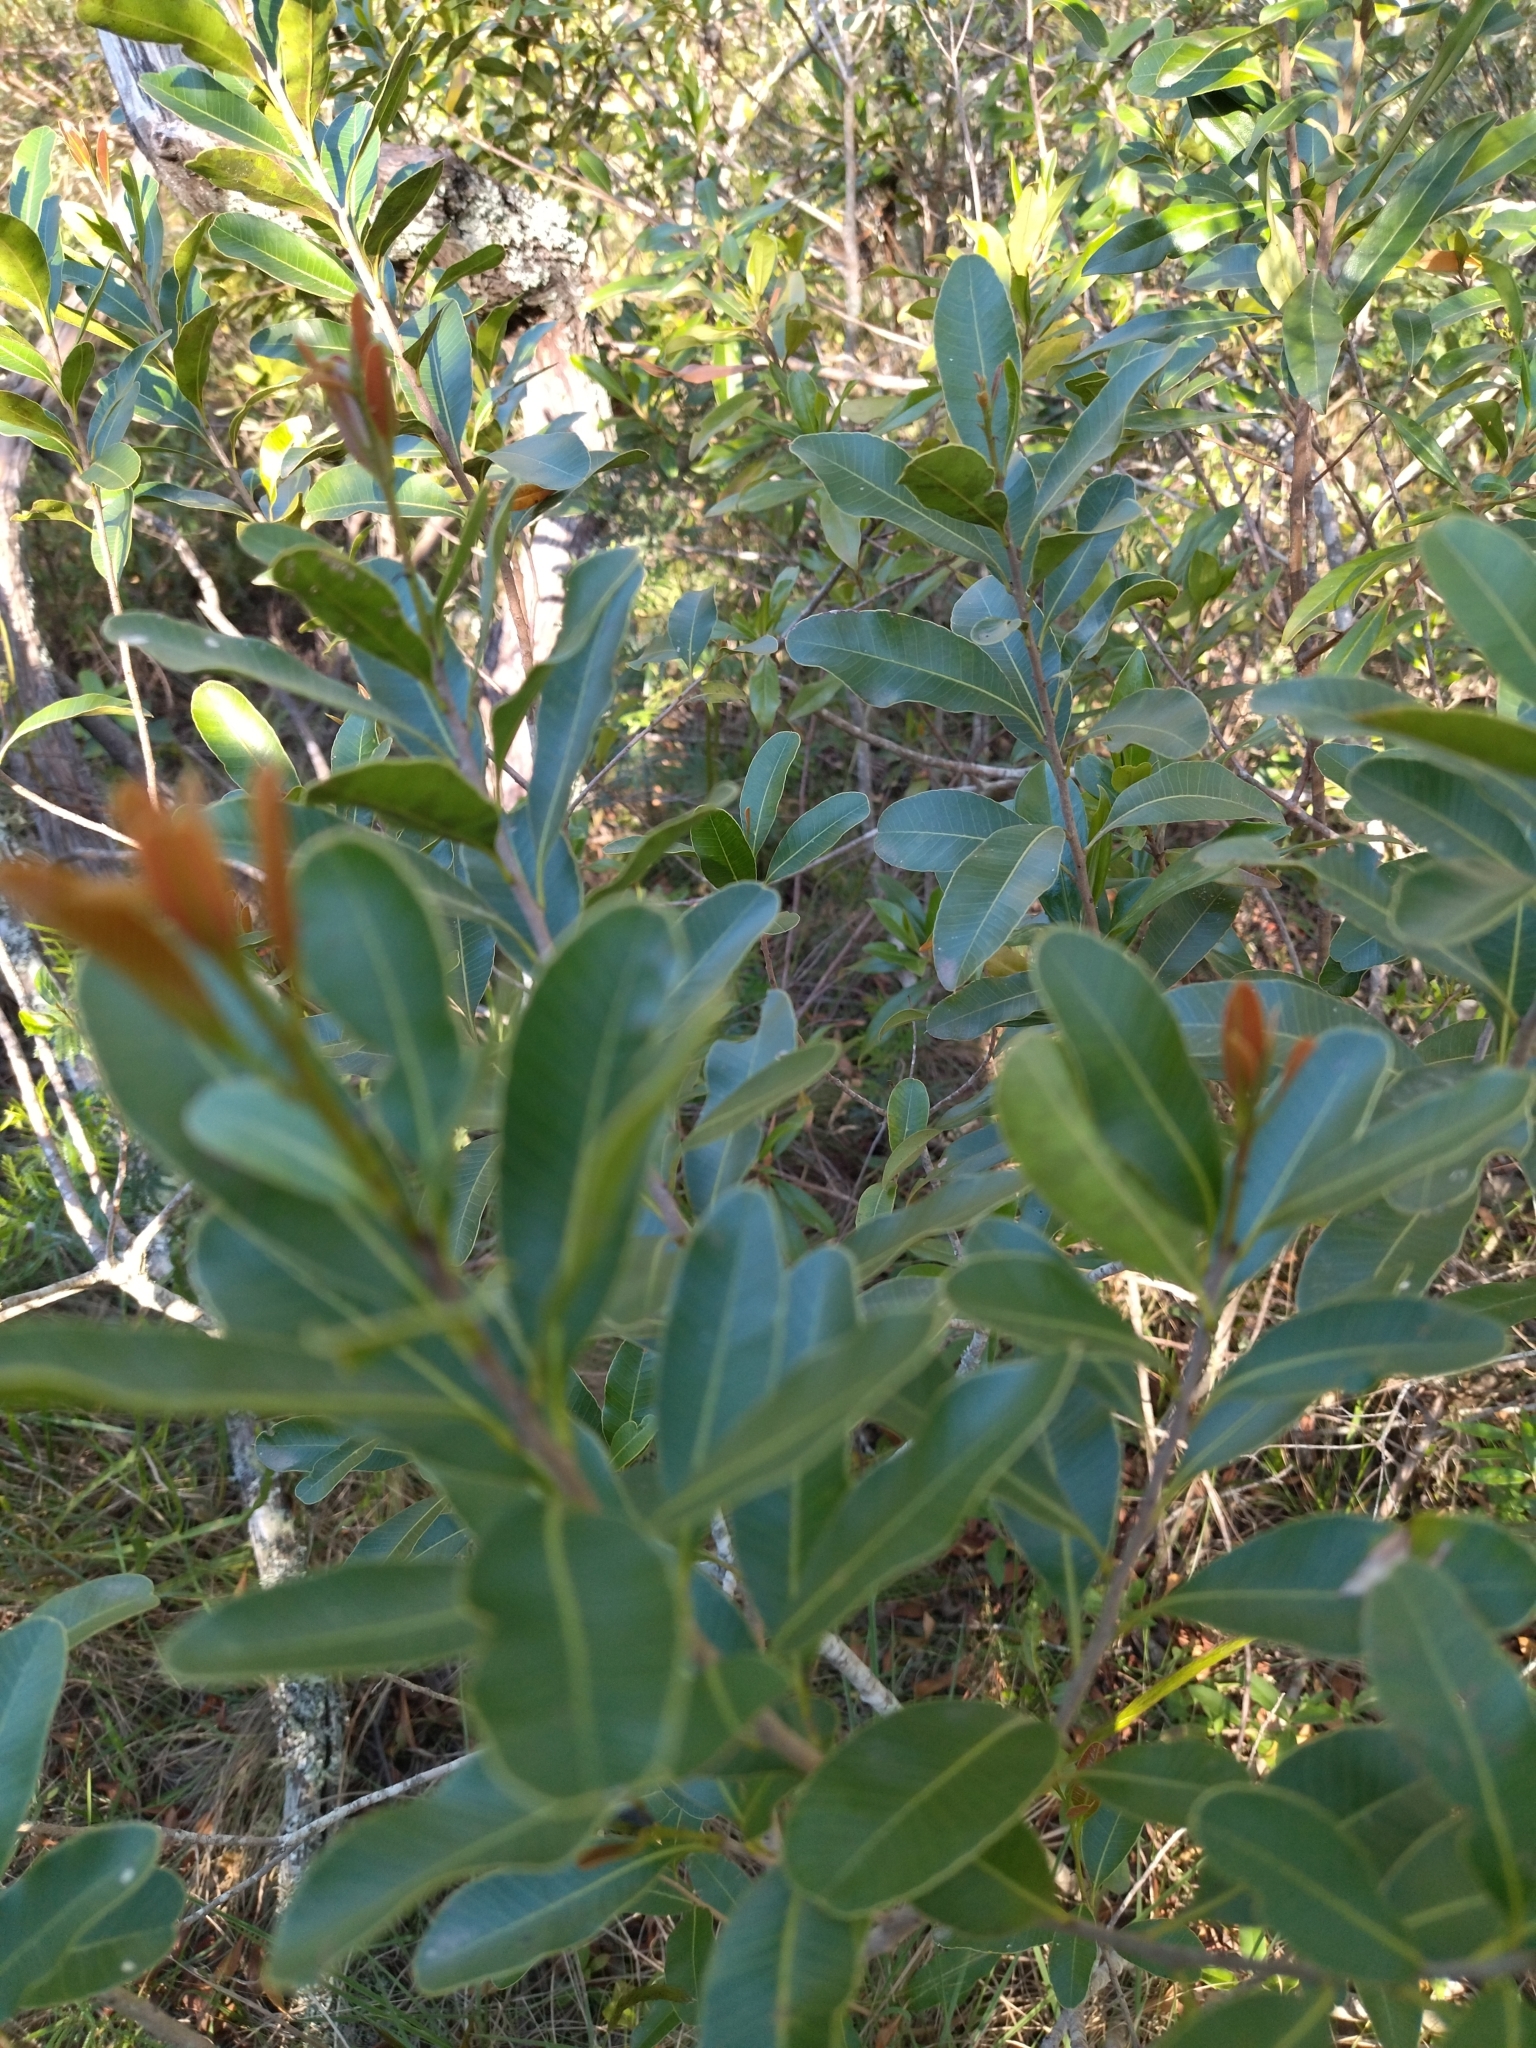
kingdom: Plantae
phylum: Tracheophyta
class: Magnoliopsida
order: Sapindales
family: Anacardiaceae
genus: Lithraea
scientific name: Lithraea brasiliensis
